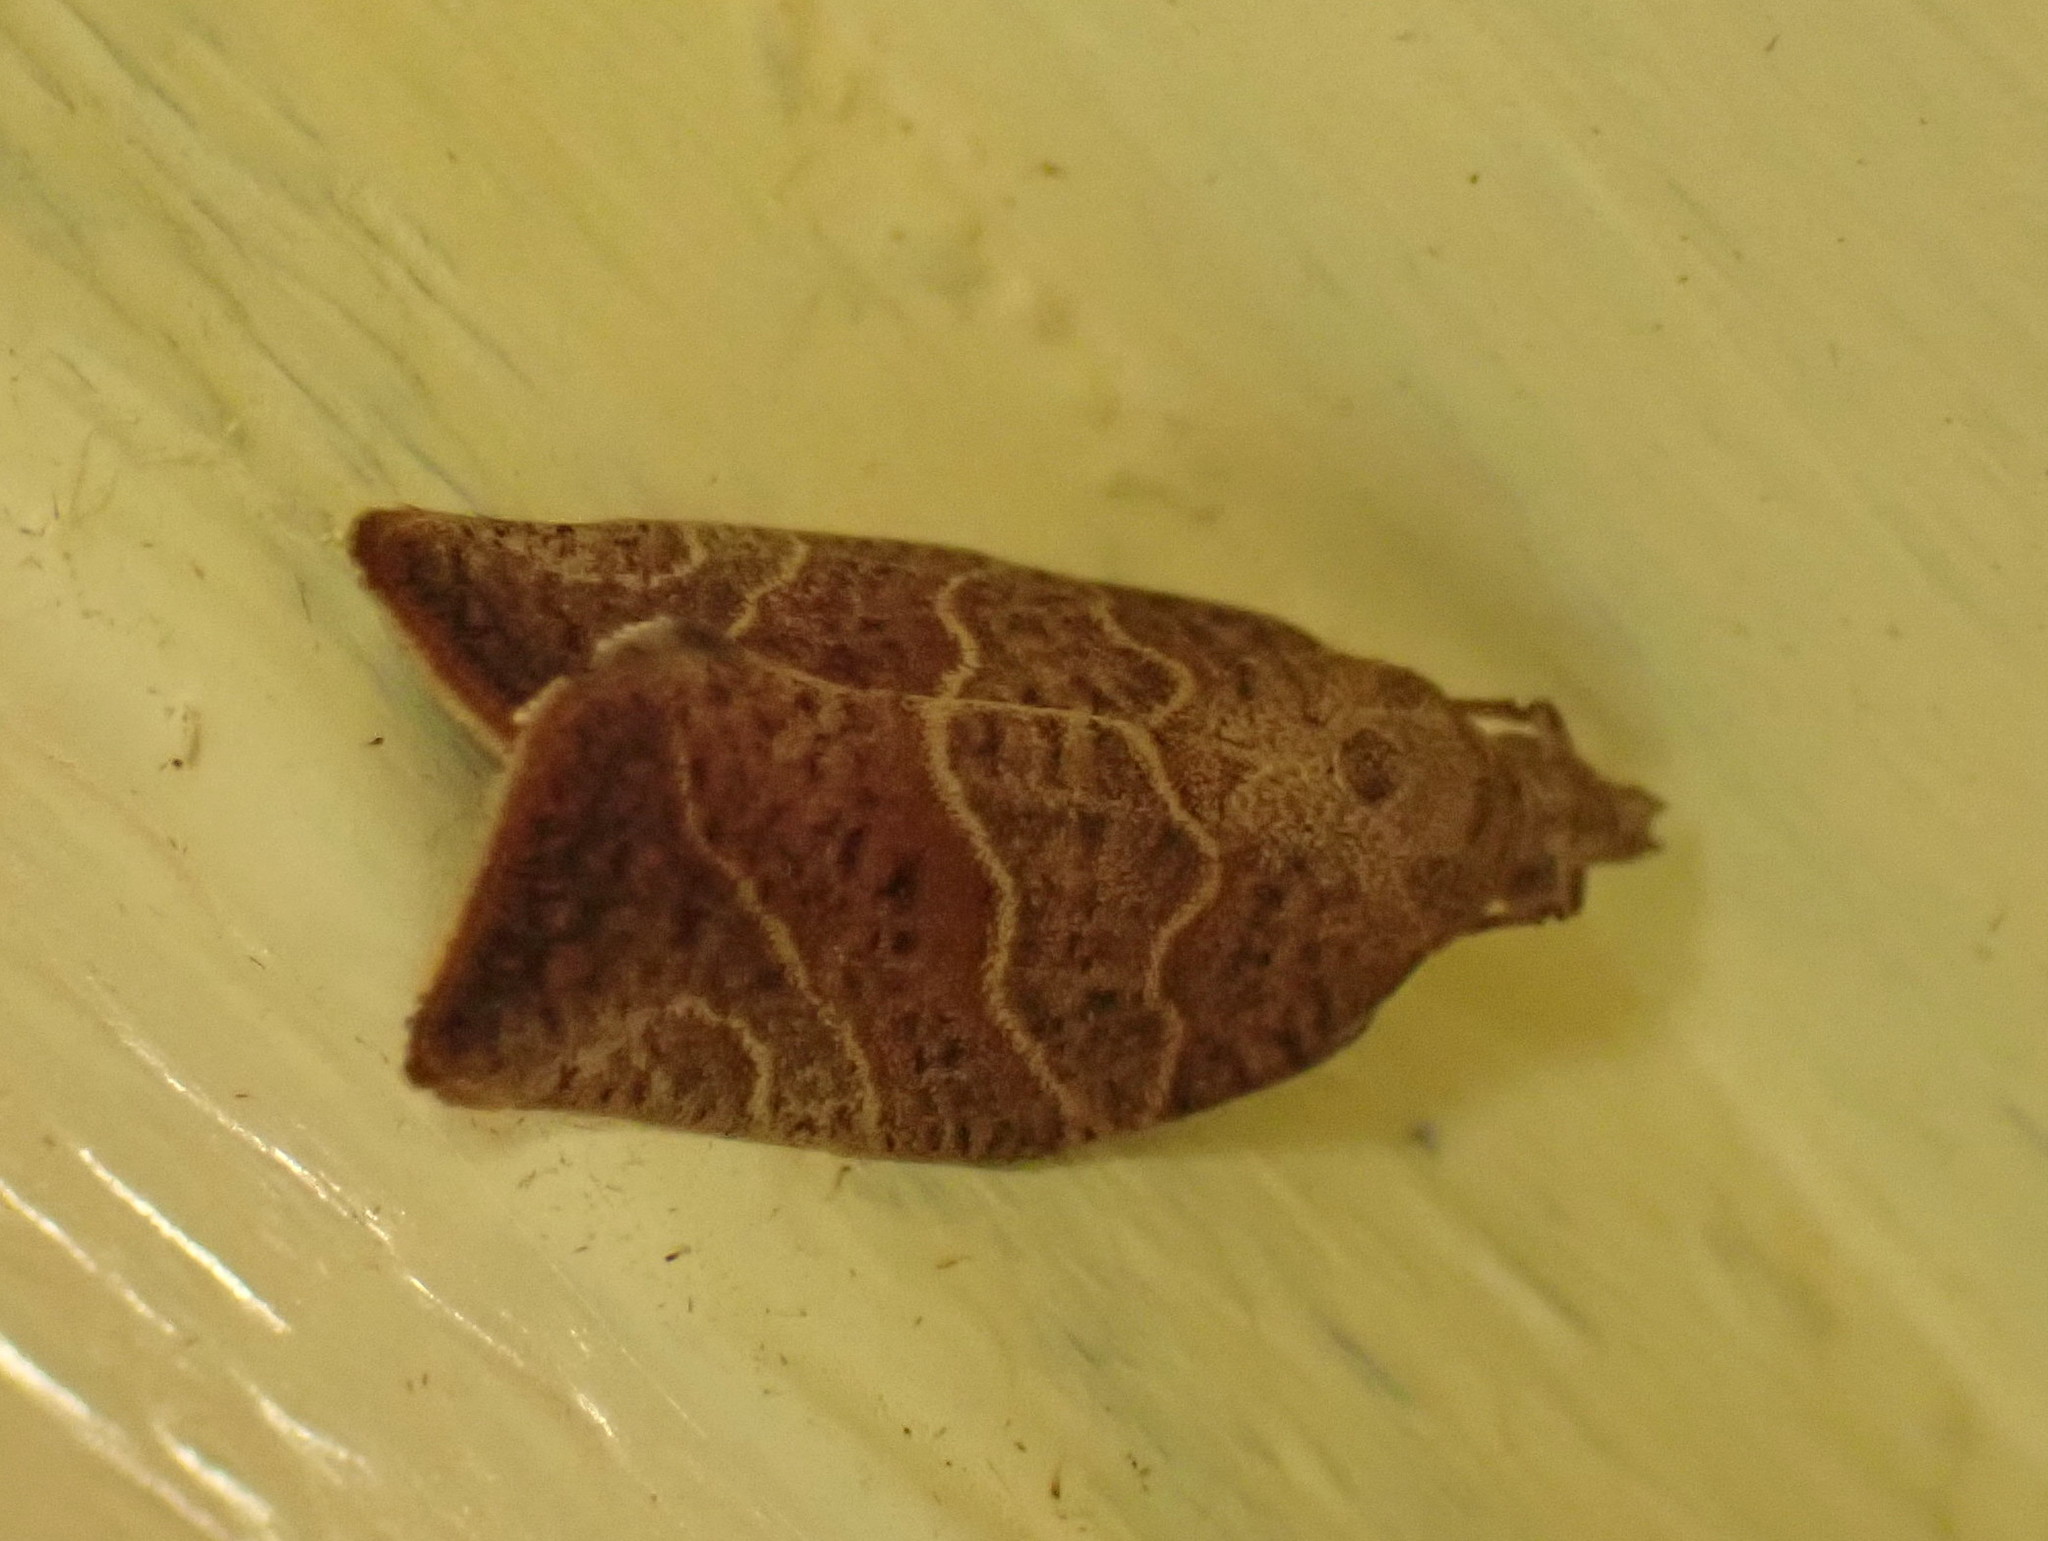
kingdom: Animalia
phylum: Arthropoda
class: Insecta
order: Lepidoptera
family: Tortricidae
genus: Pandemis
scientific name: Pandemis limitata
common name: Three-lined leafroller moth
